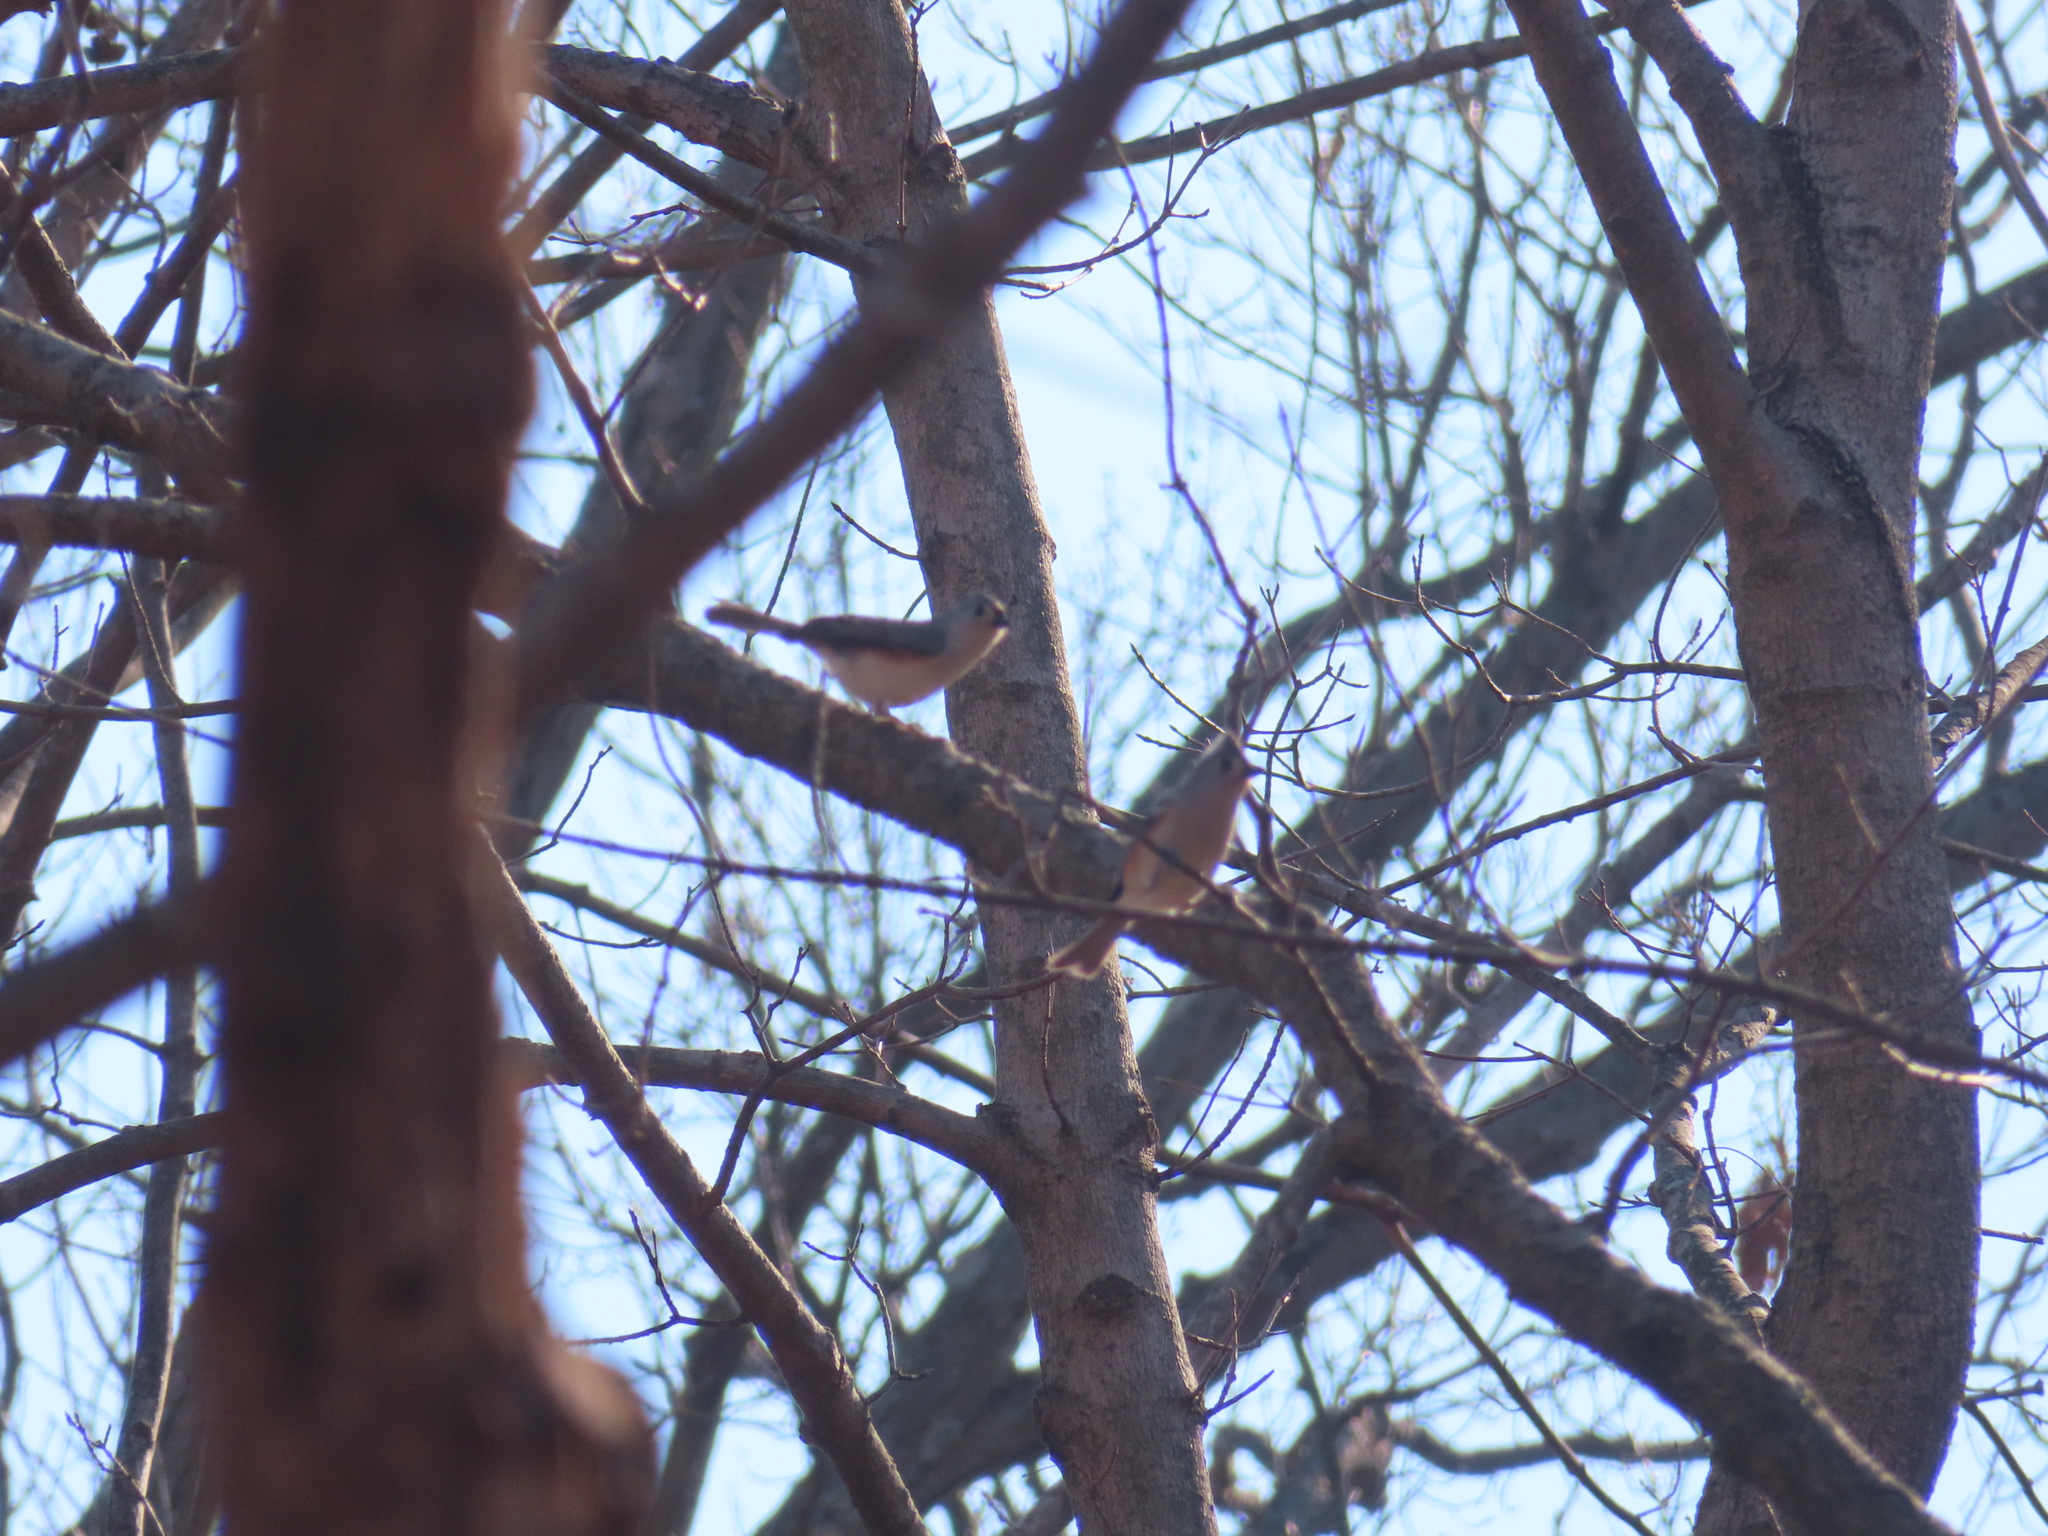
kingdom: Animalia
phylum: Chordata
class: Aves
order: Passeriformes
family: Paridae
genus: Baeolophus
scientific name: Baeolophus bicolor
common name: Tufted titmouse
